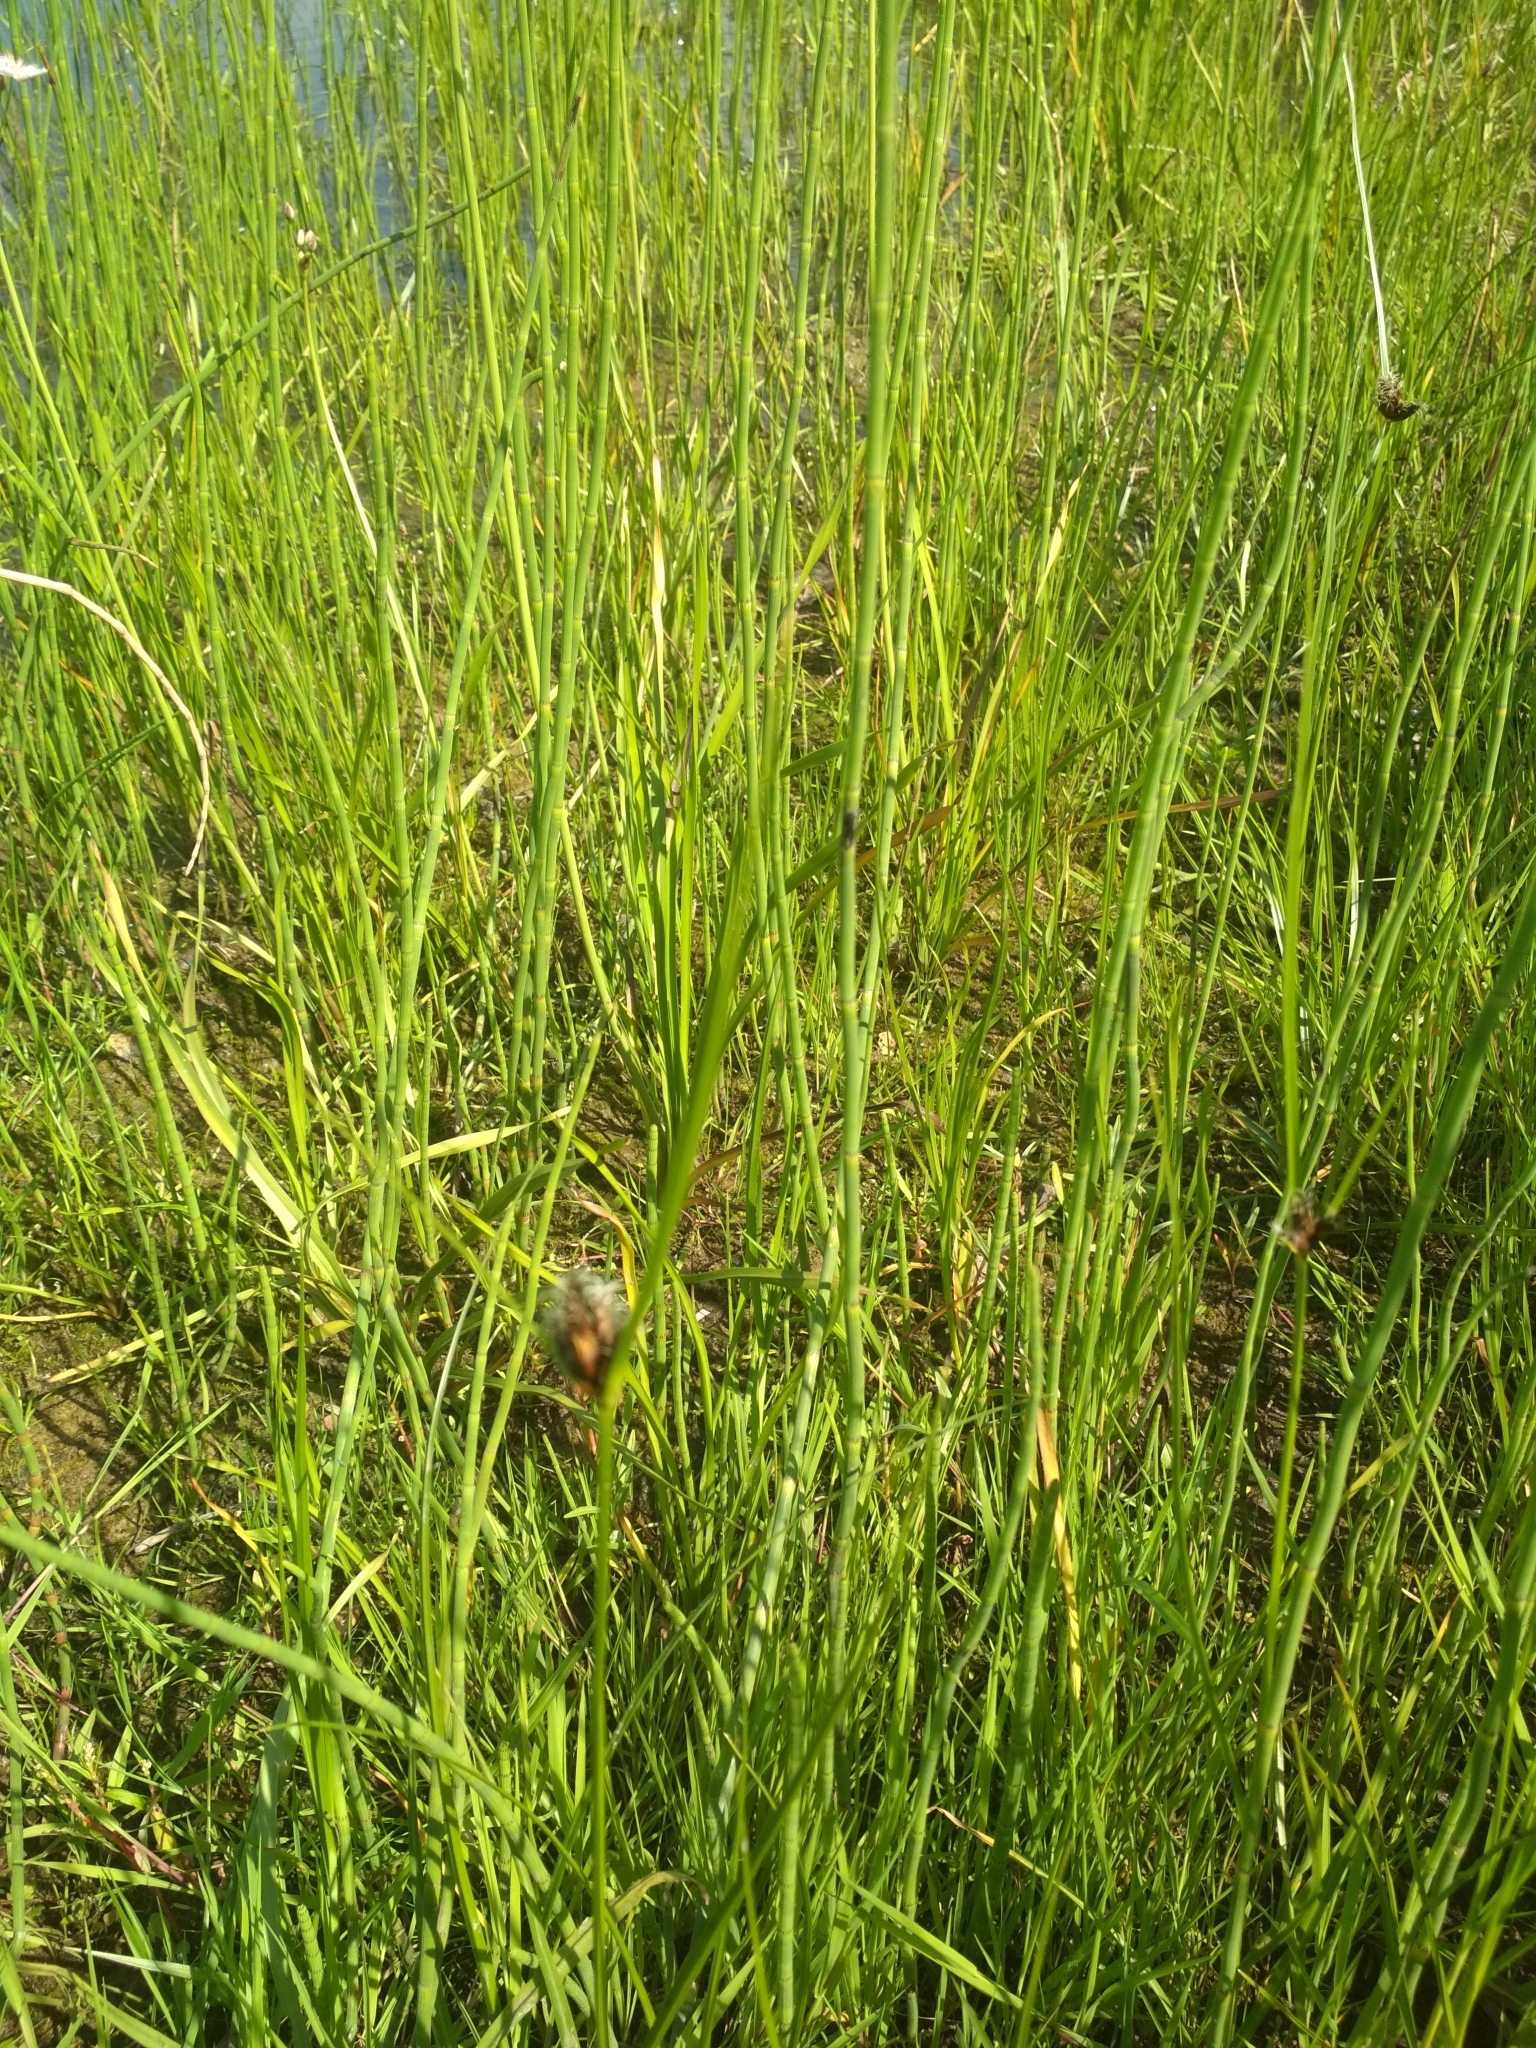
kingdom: Plantae
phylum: Tracheophyta
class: Liliopsida
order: Alismatales
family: Butomaceae
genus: Butomus
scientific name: Butomus umbellatus
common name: Flowering-rush
